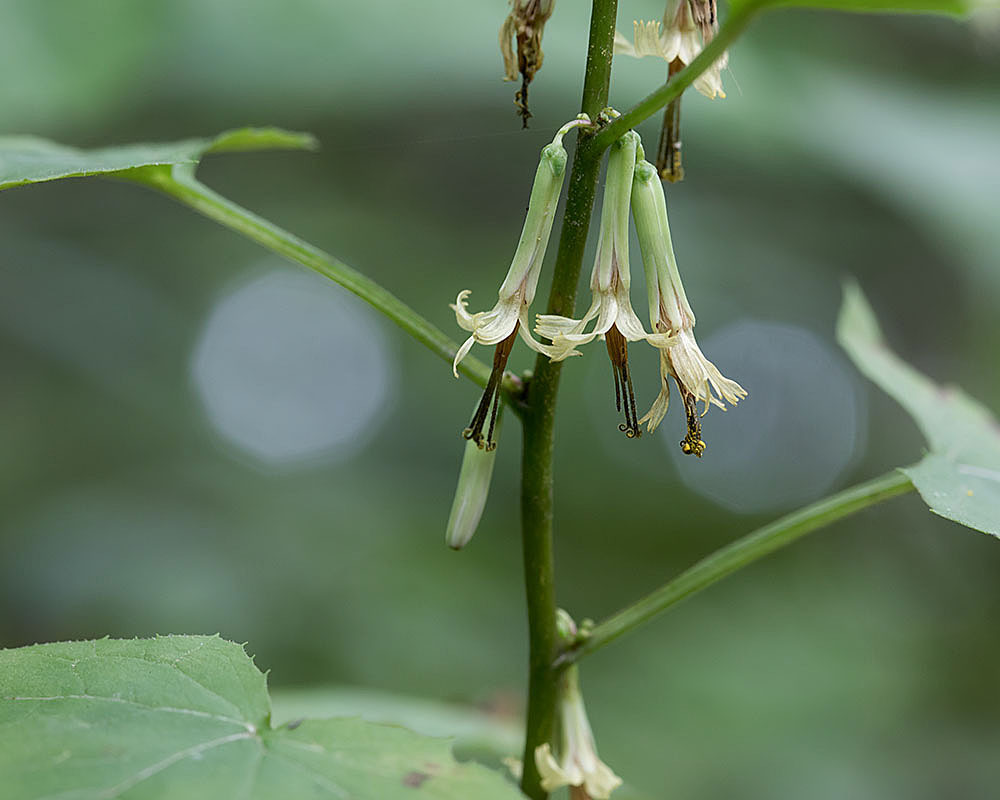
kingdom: Plantae
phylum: Tracheophyta
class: Magnoliopsida
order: Asterales
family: Asteraceae
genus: Nabalus
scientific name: Nabalus altissima
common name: Tall rattlesnakeroot
